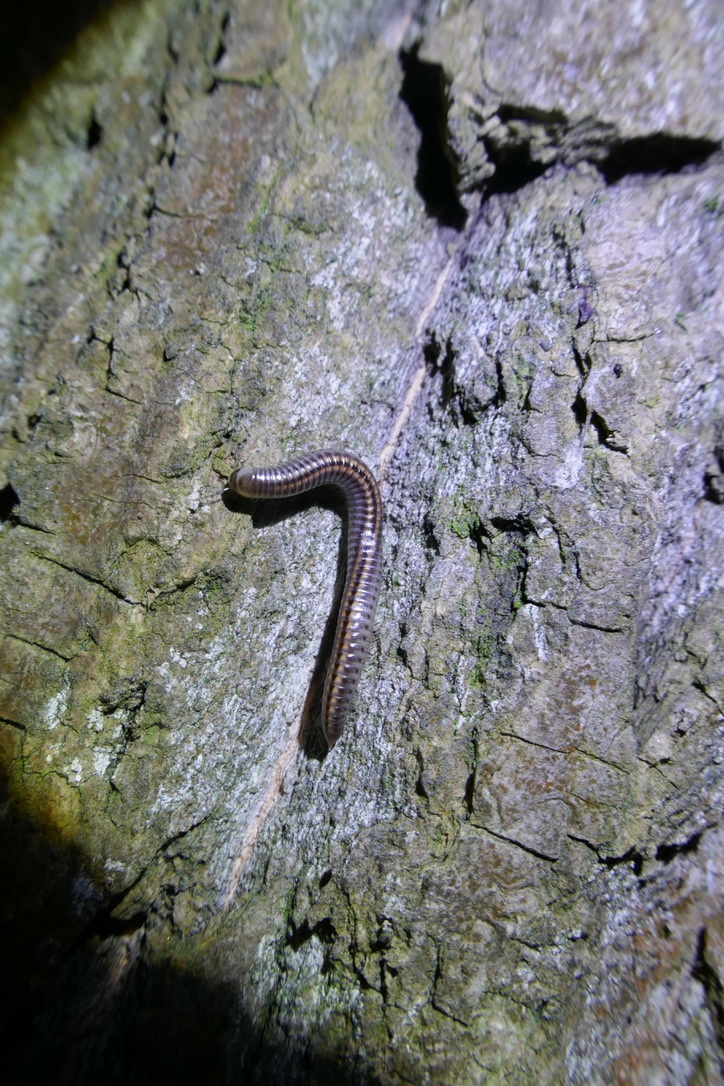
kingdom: Animalia
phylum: Arthropoda
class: Diplopoda
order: Julida
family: Julidae
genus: Ommatoiulus
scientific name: Ommatoiulus sabulosus
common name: Striped millipede
